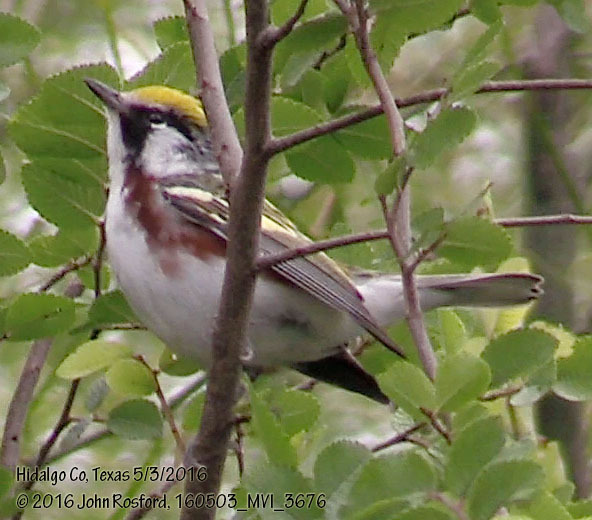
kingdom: Animalia
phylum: Chordata
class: Aves
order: Passeriformes
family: Parulidae
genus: Setophaga
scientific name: Setophaga pensylvanica
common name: Chestnut-sided warbler
